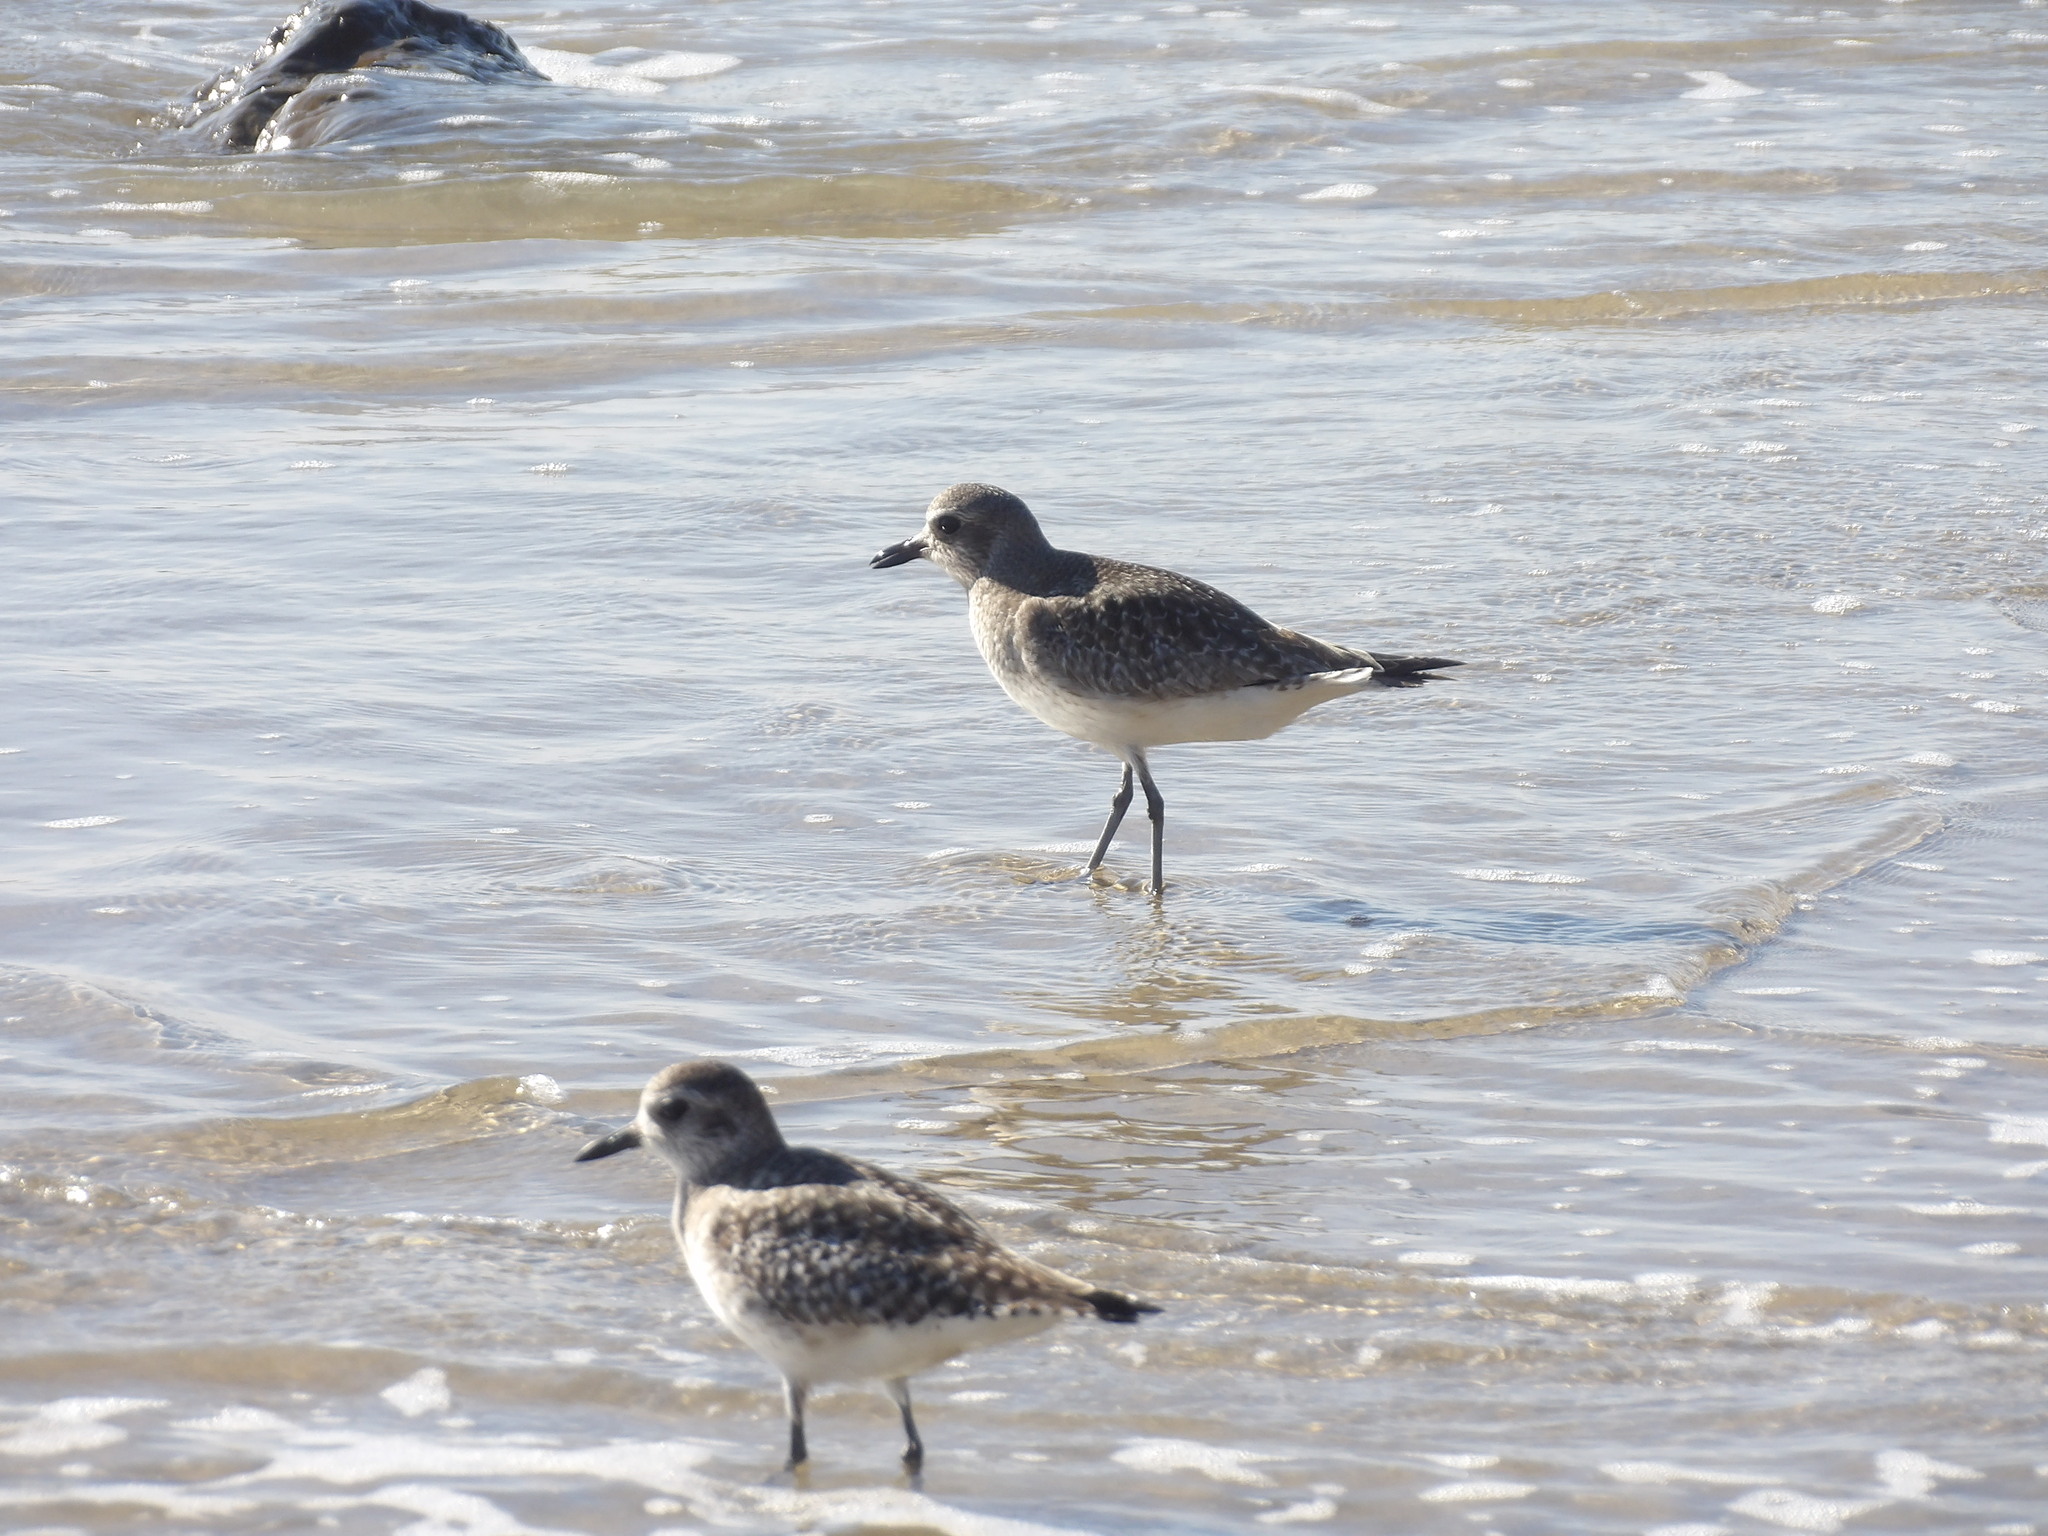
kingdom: Animalia
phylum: Chordata
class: Aves
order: Charadriiformes
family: Charadriidae
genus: Pluvialis
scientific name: Pluvialis squatarola
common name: Grey plover
